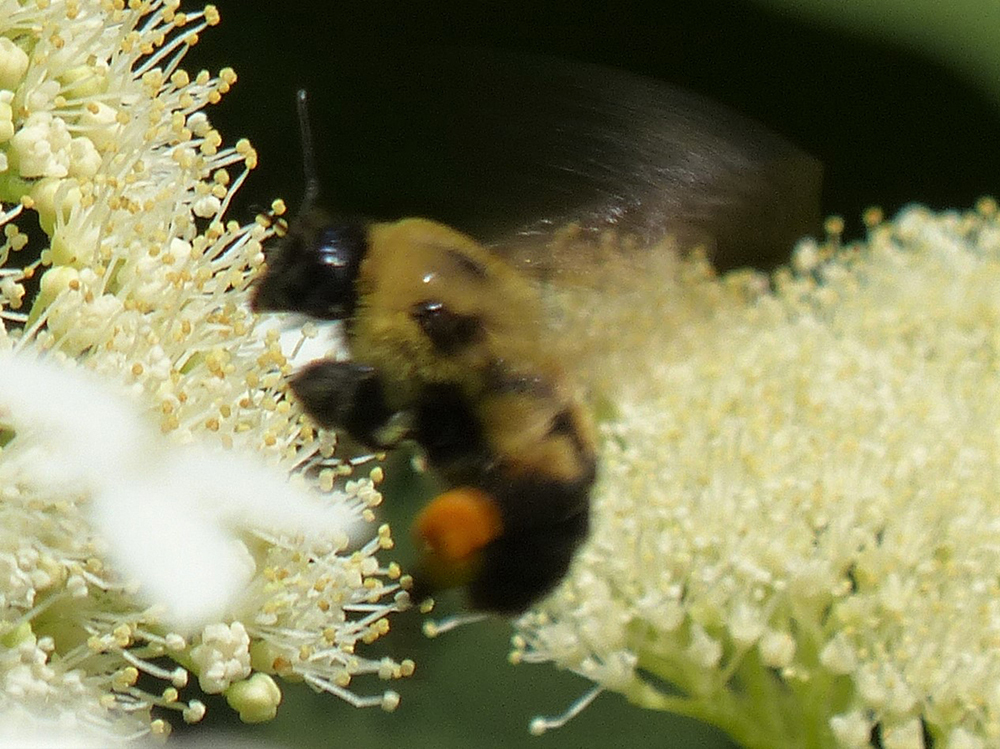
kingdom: Animalia
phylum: Arthropoda
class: Insecta
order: Hymenoptera
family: Apidae
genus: Bombus
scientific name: Bombus griseocollis
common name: Brown-belted bumble bee
